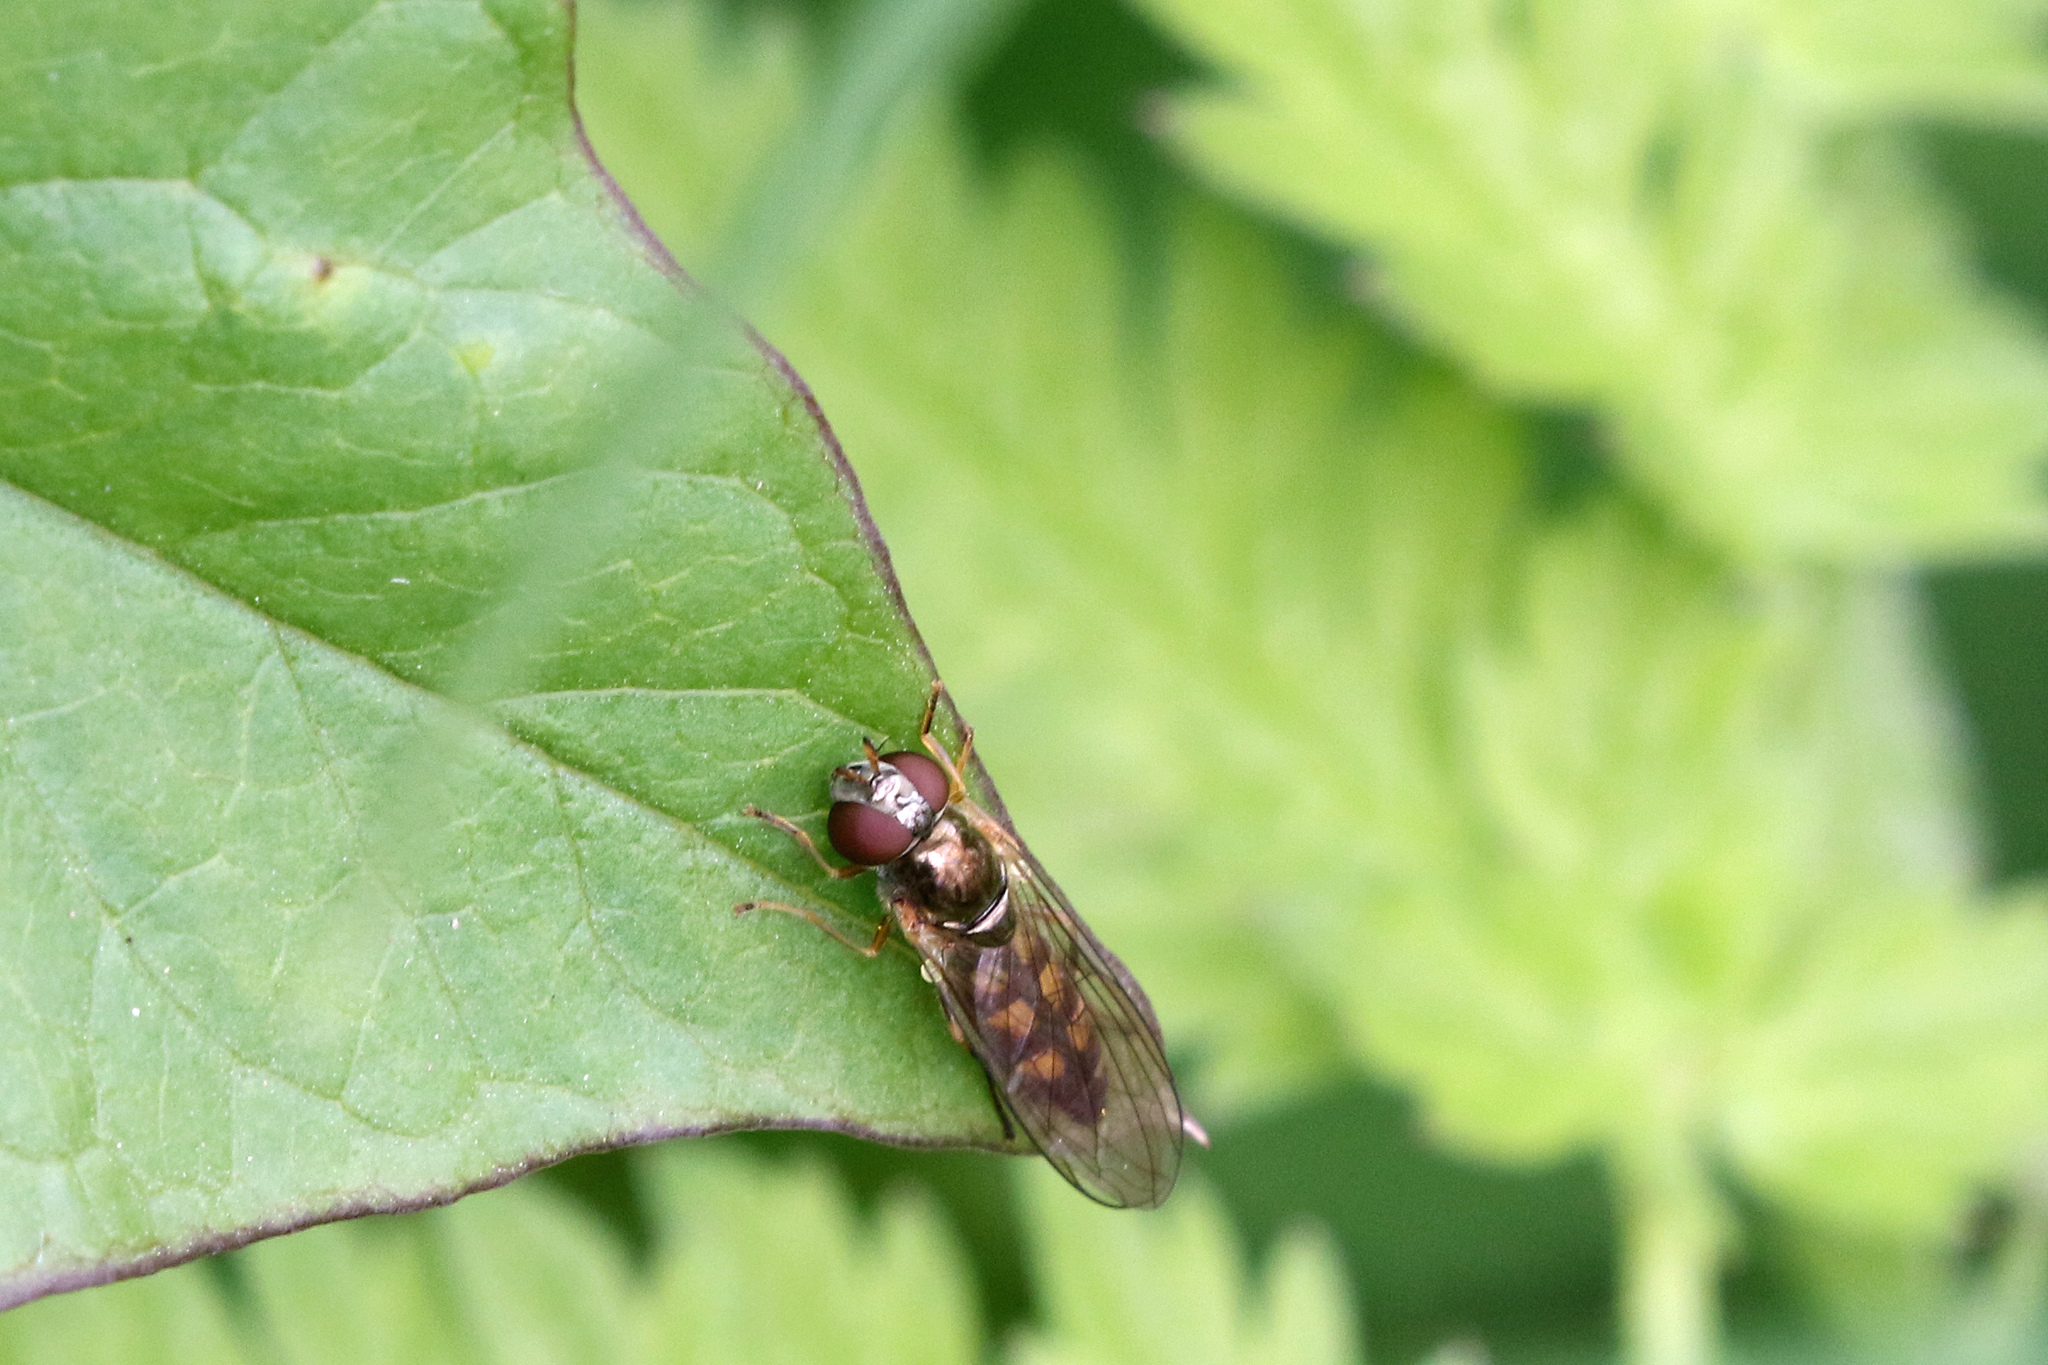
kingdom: Animalia
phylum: Arthropoda
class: Insecta
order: Diptera
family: Syrphidae
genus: Melanostoma
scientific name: Melanostoma scalare
